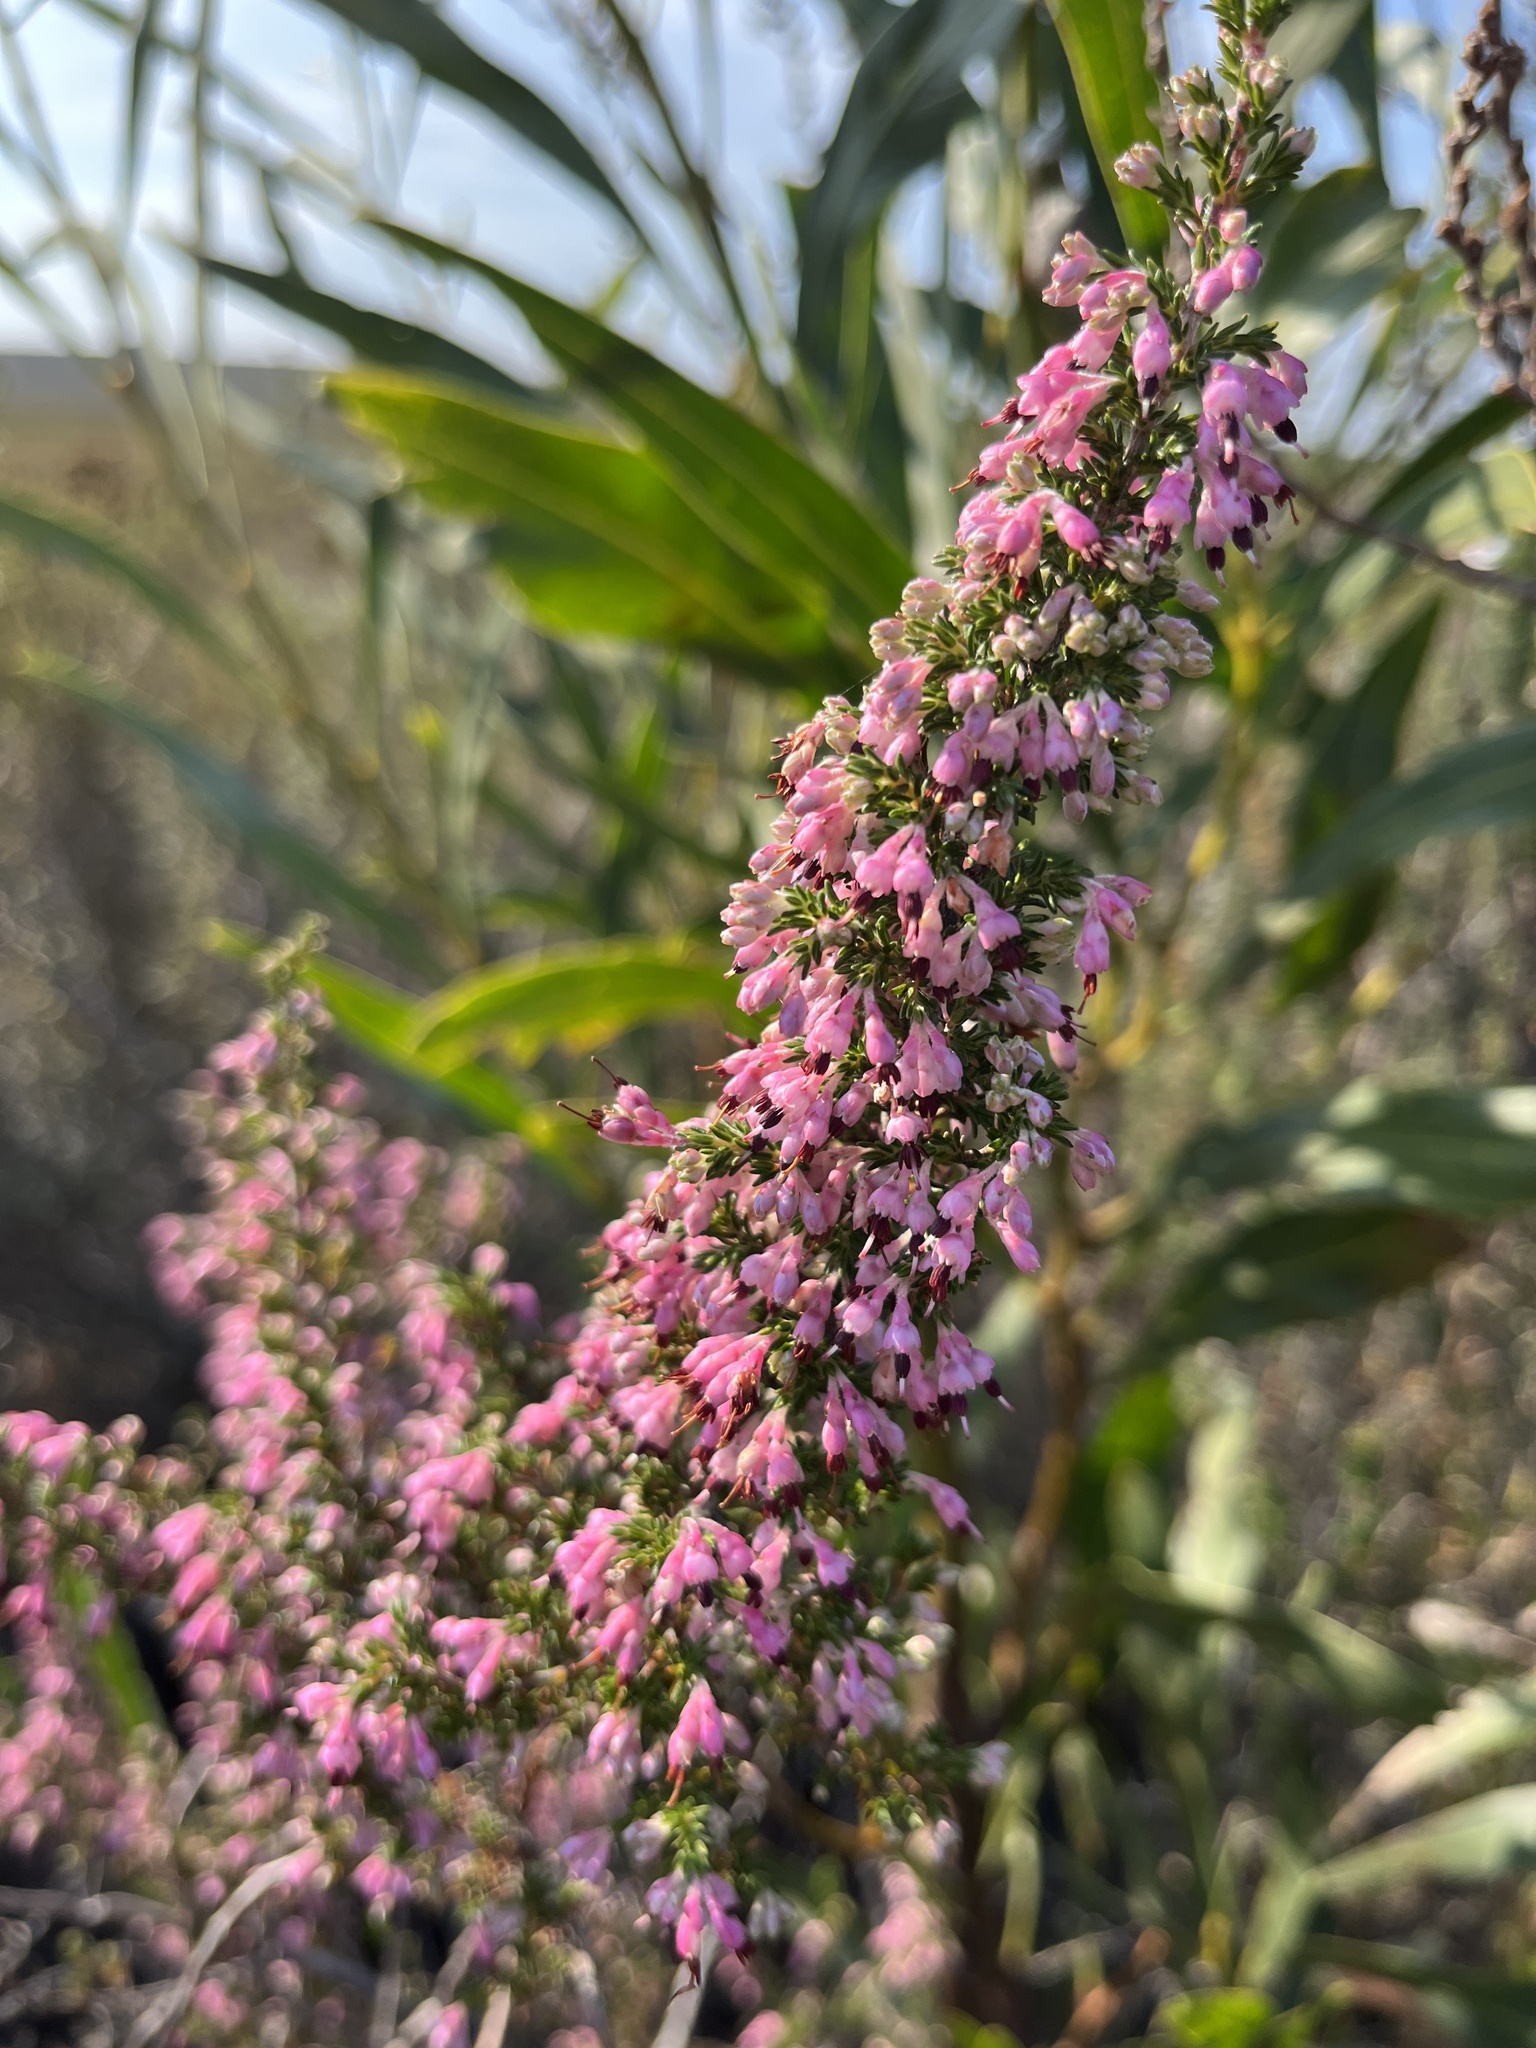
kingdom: Plantae
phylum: Tracheophyta
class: Magnoliopsida
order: Ericales
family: Ericaceae
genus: Erica
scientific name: Erica placentiflora
